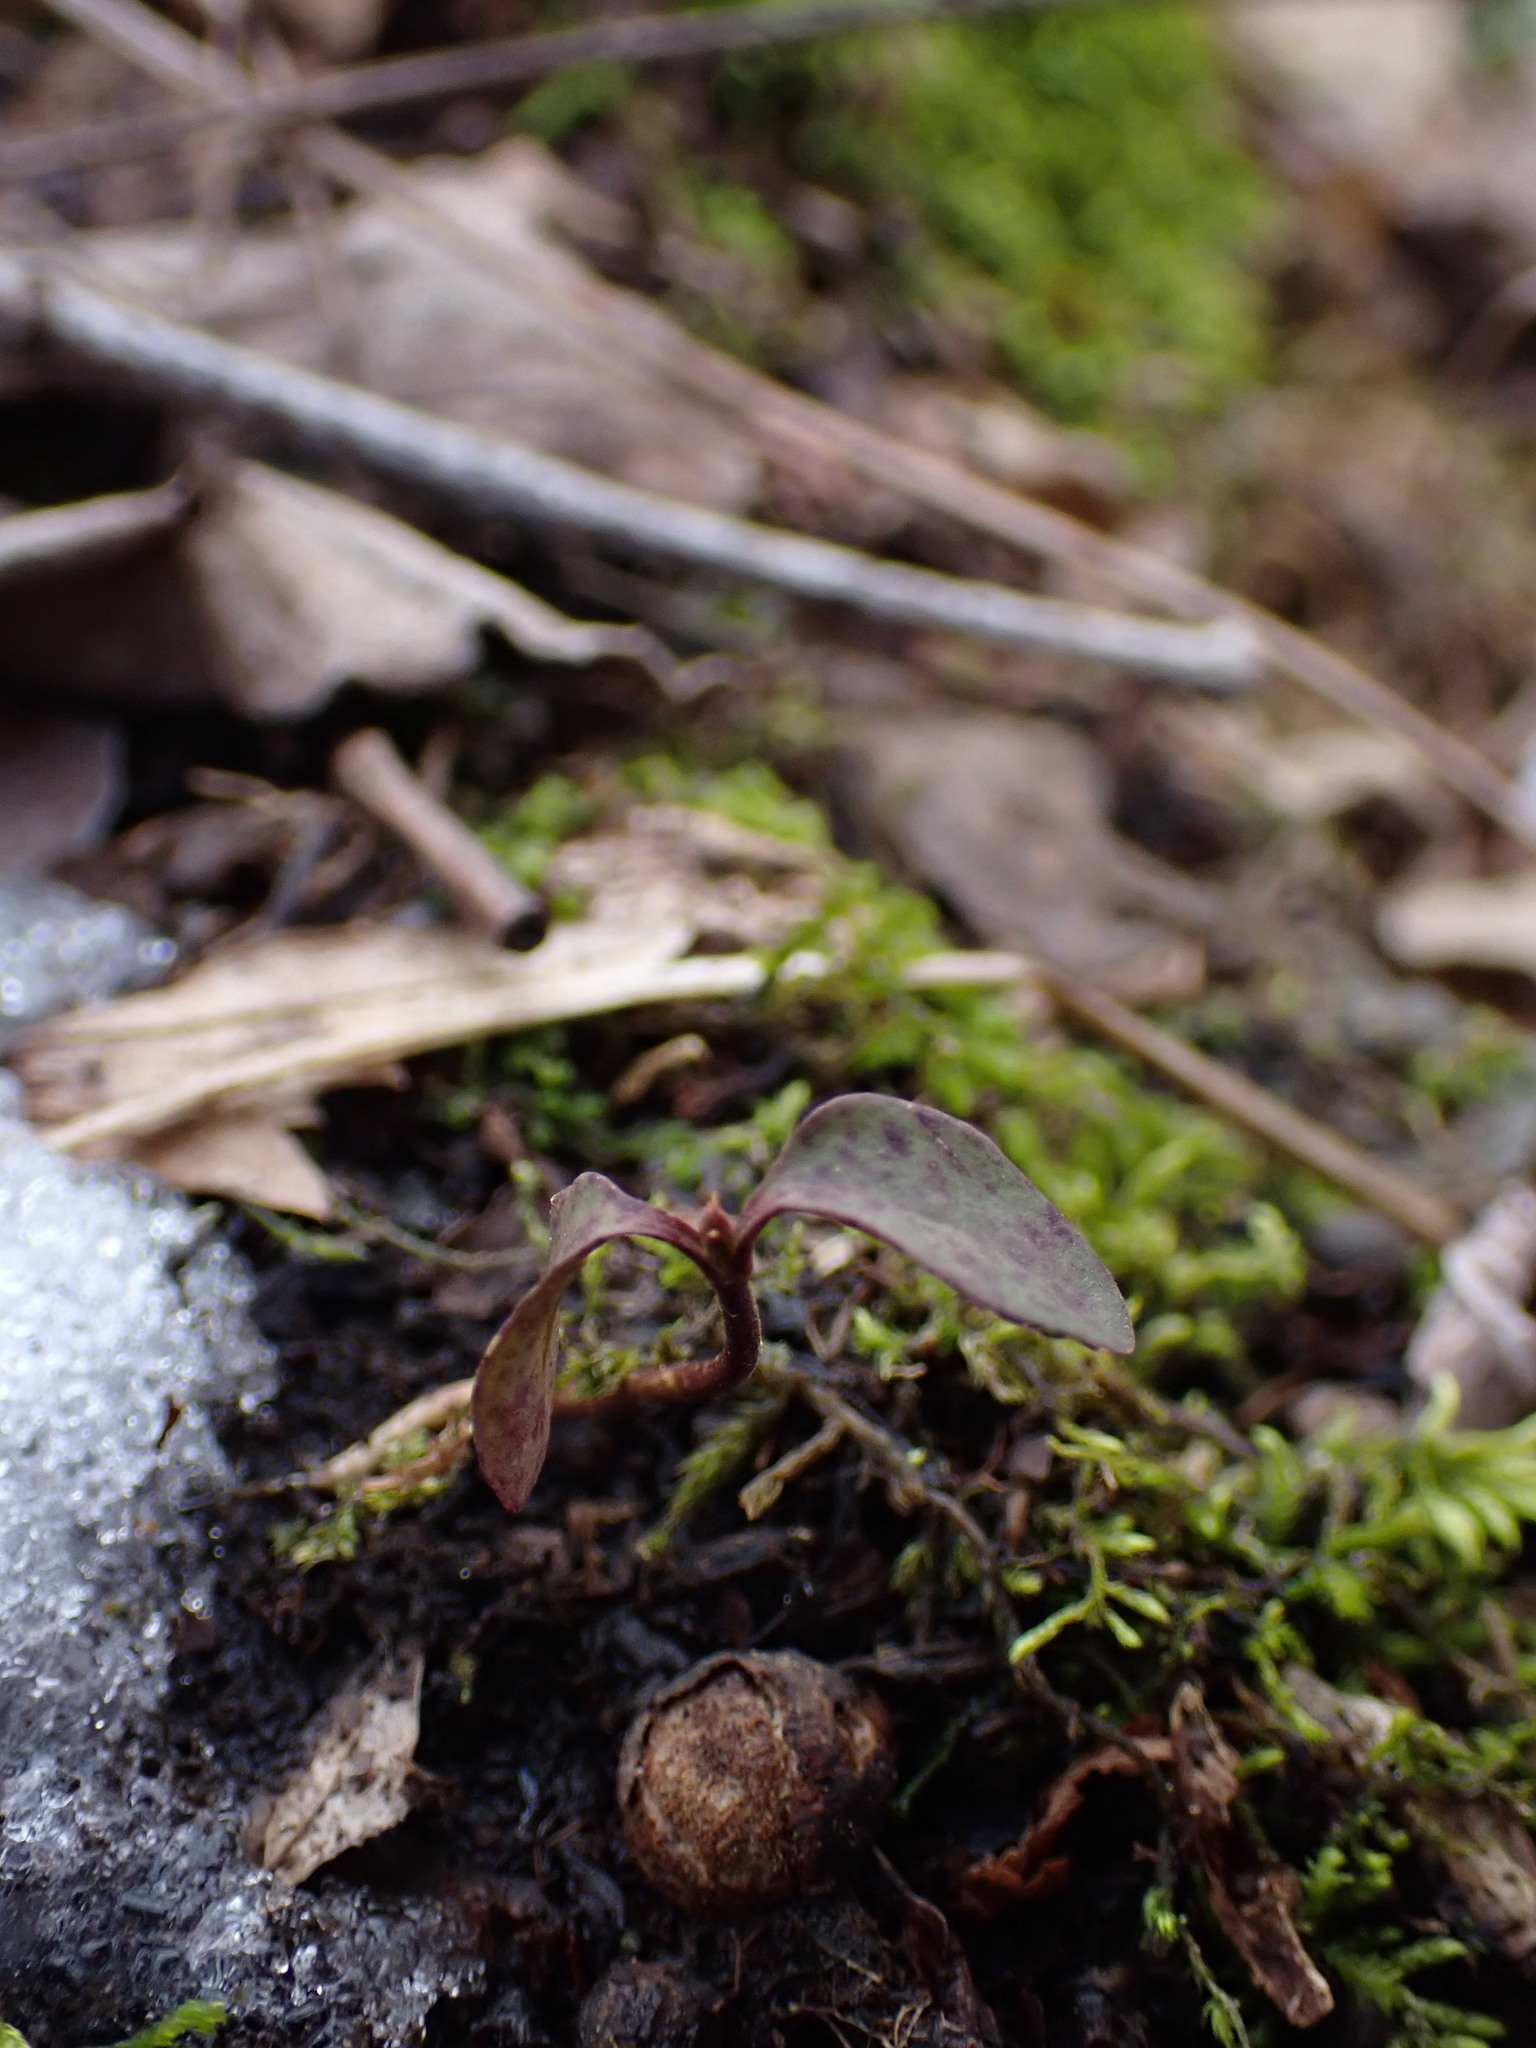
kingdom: Plantae
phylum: Tracheophyta
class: Magnoliopsida
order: Ericales
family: Ericaceae
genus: Gaultheria
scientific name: Gaultheria procumbens
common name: Checkerberry
